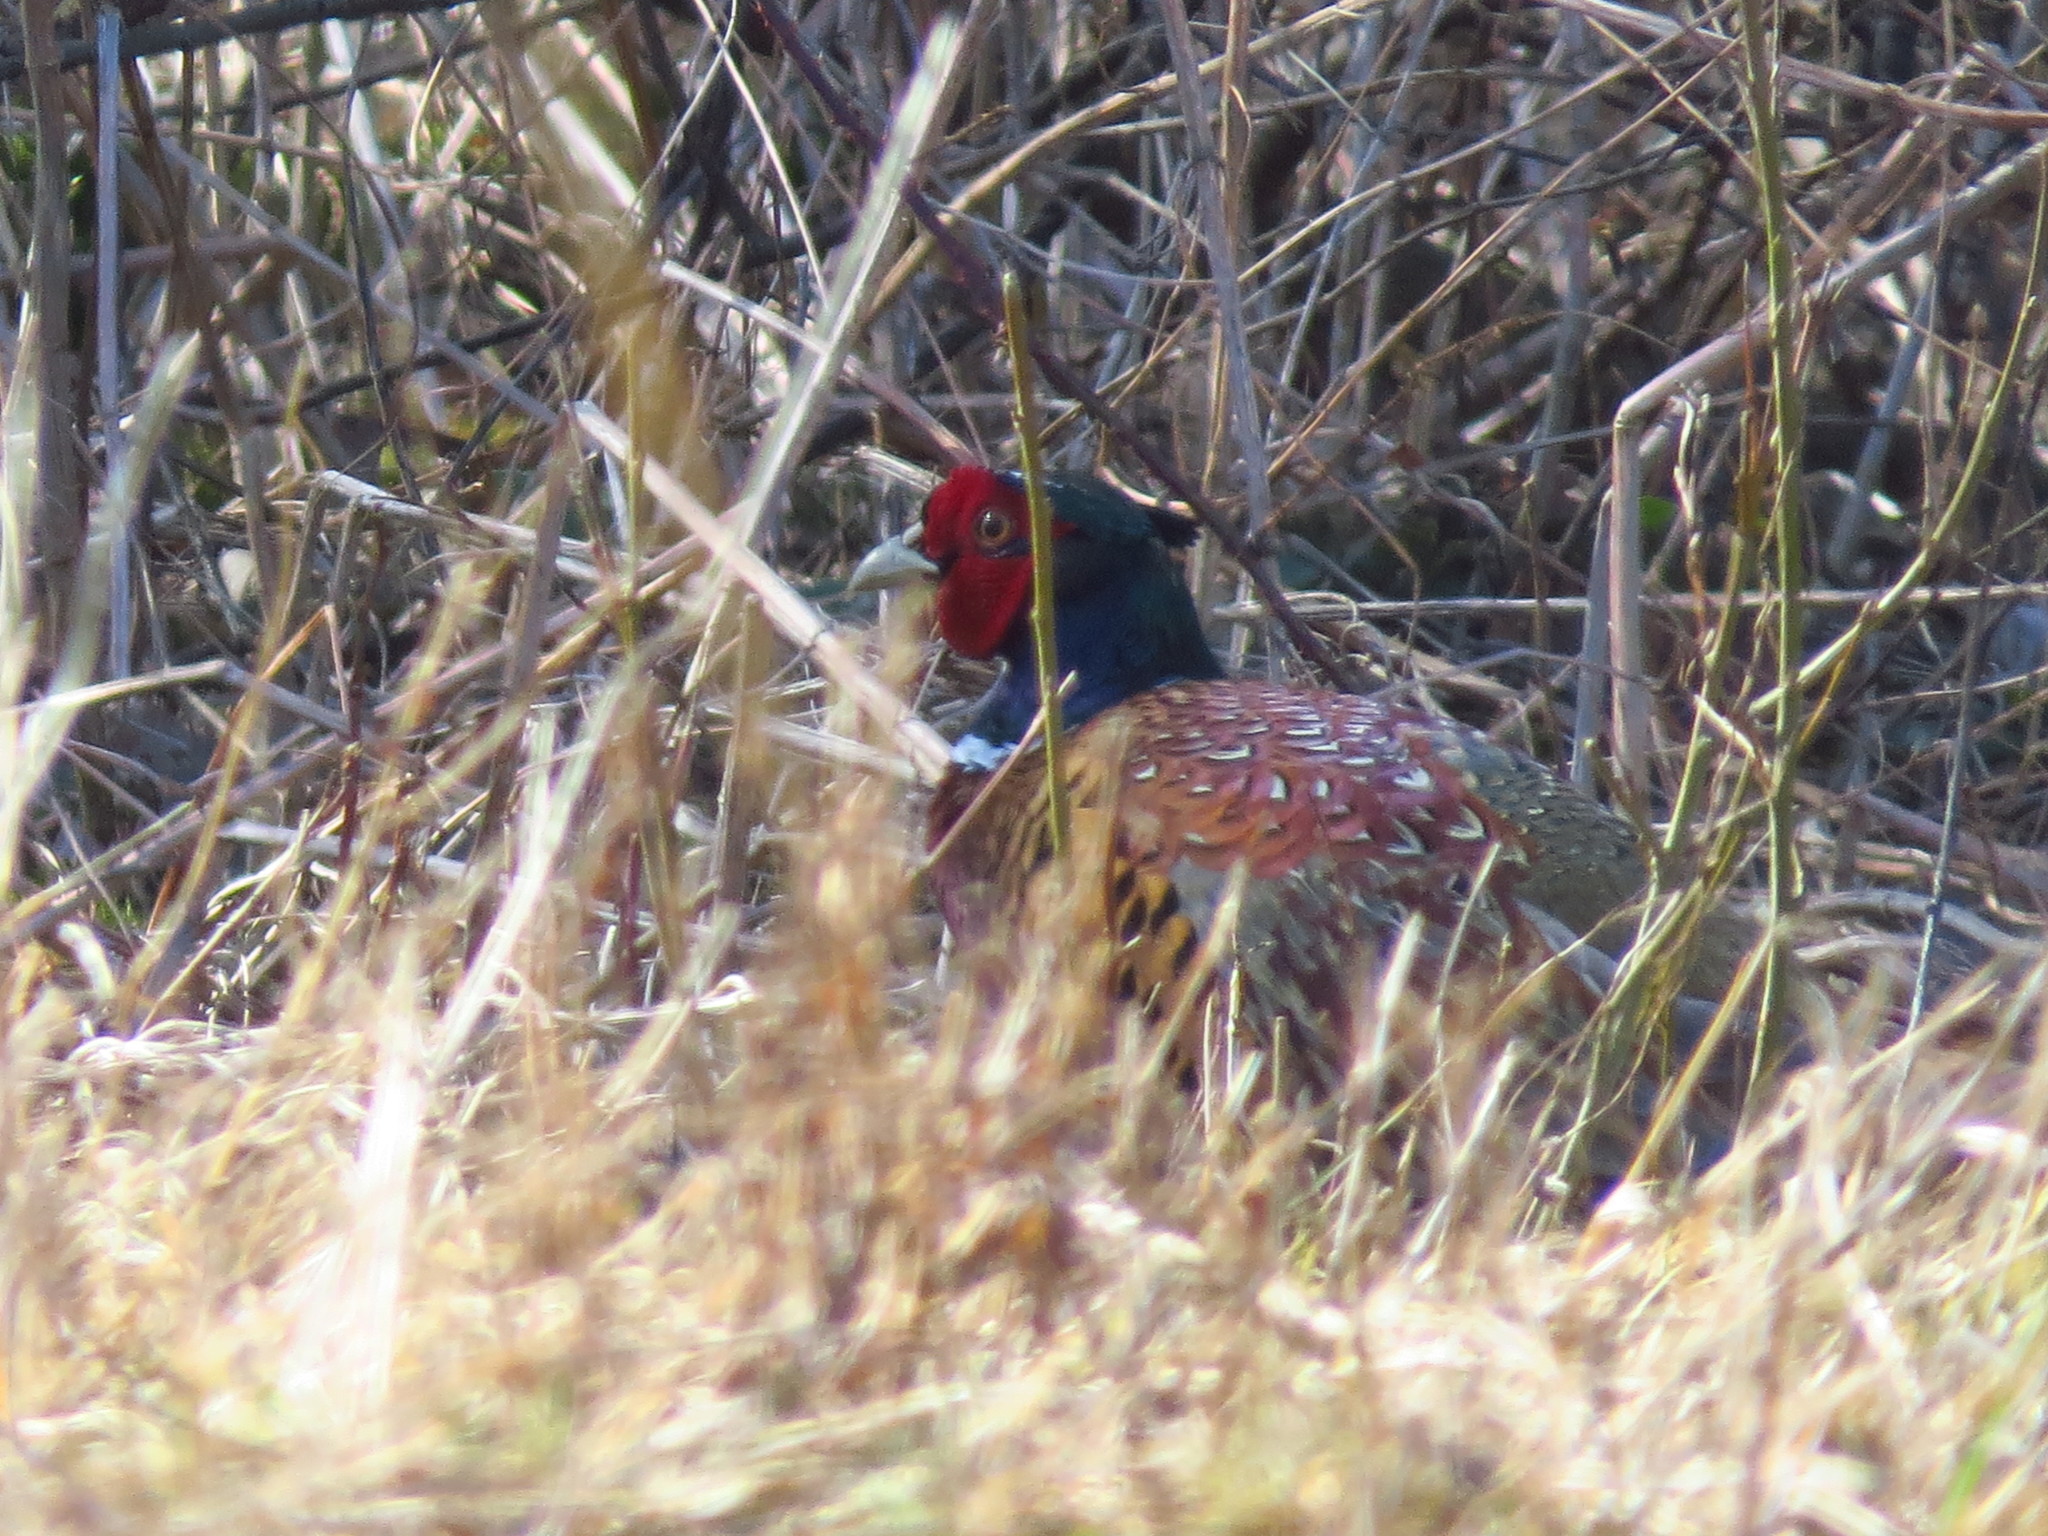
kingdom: Animalia
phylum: Chordata
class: Aves
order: Galliformes
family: Phasianidae
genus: Phasianus
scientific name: Phasianus colchicus
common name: Common pheasant
